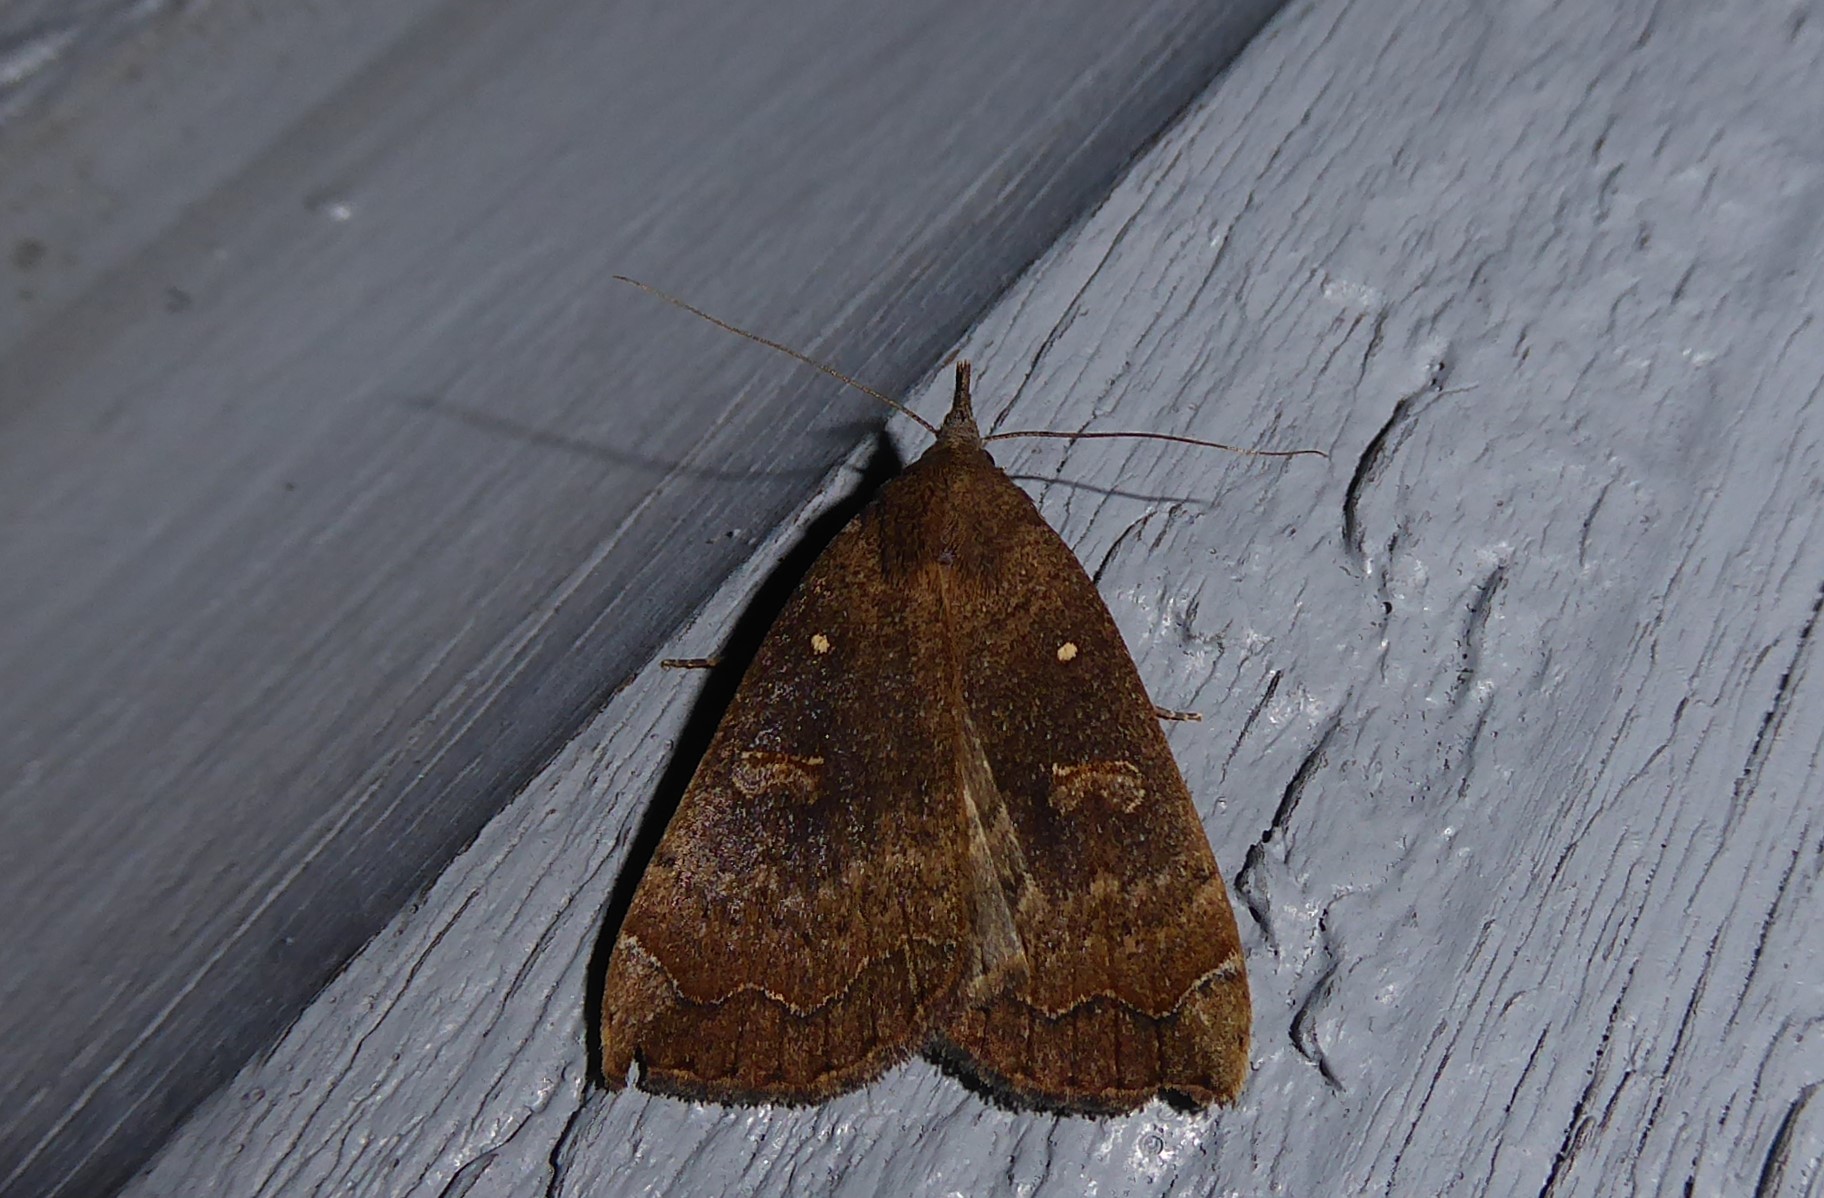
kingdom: Animalia
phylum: Arthropoda
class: Insecta
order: Lepidoptera
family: Erebidae
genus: Rhapsa
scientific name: Rhapsa scotosialis
